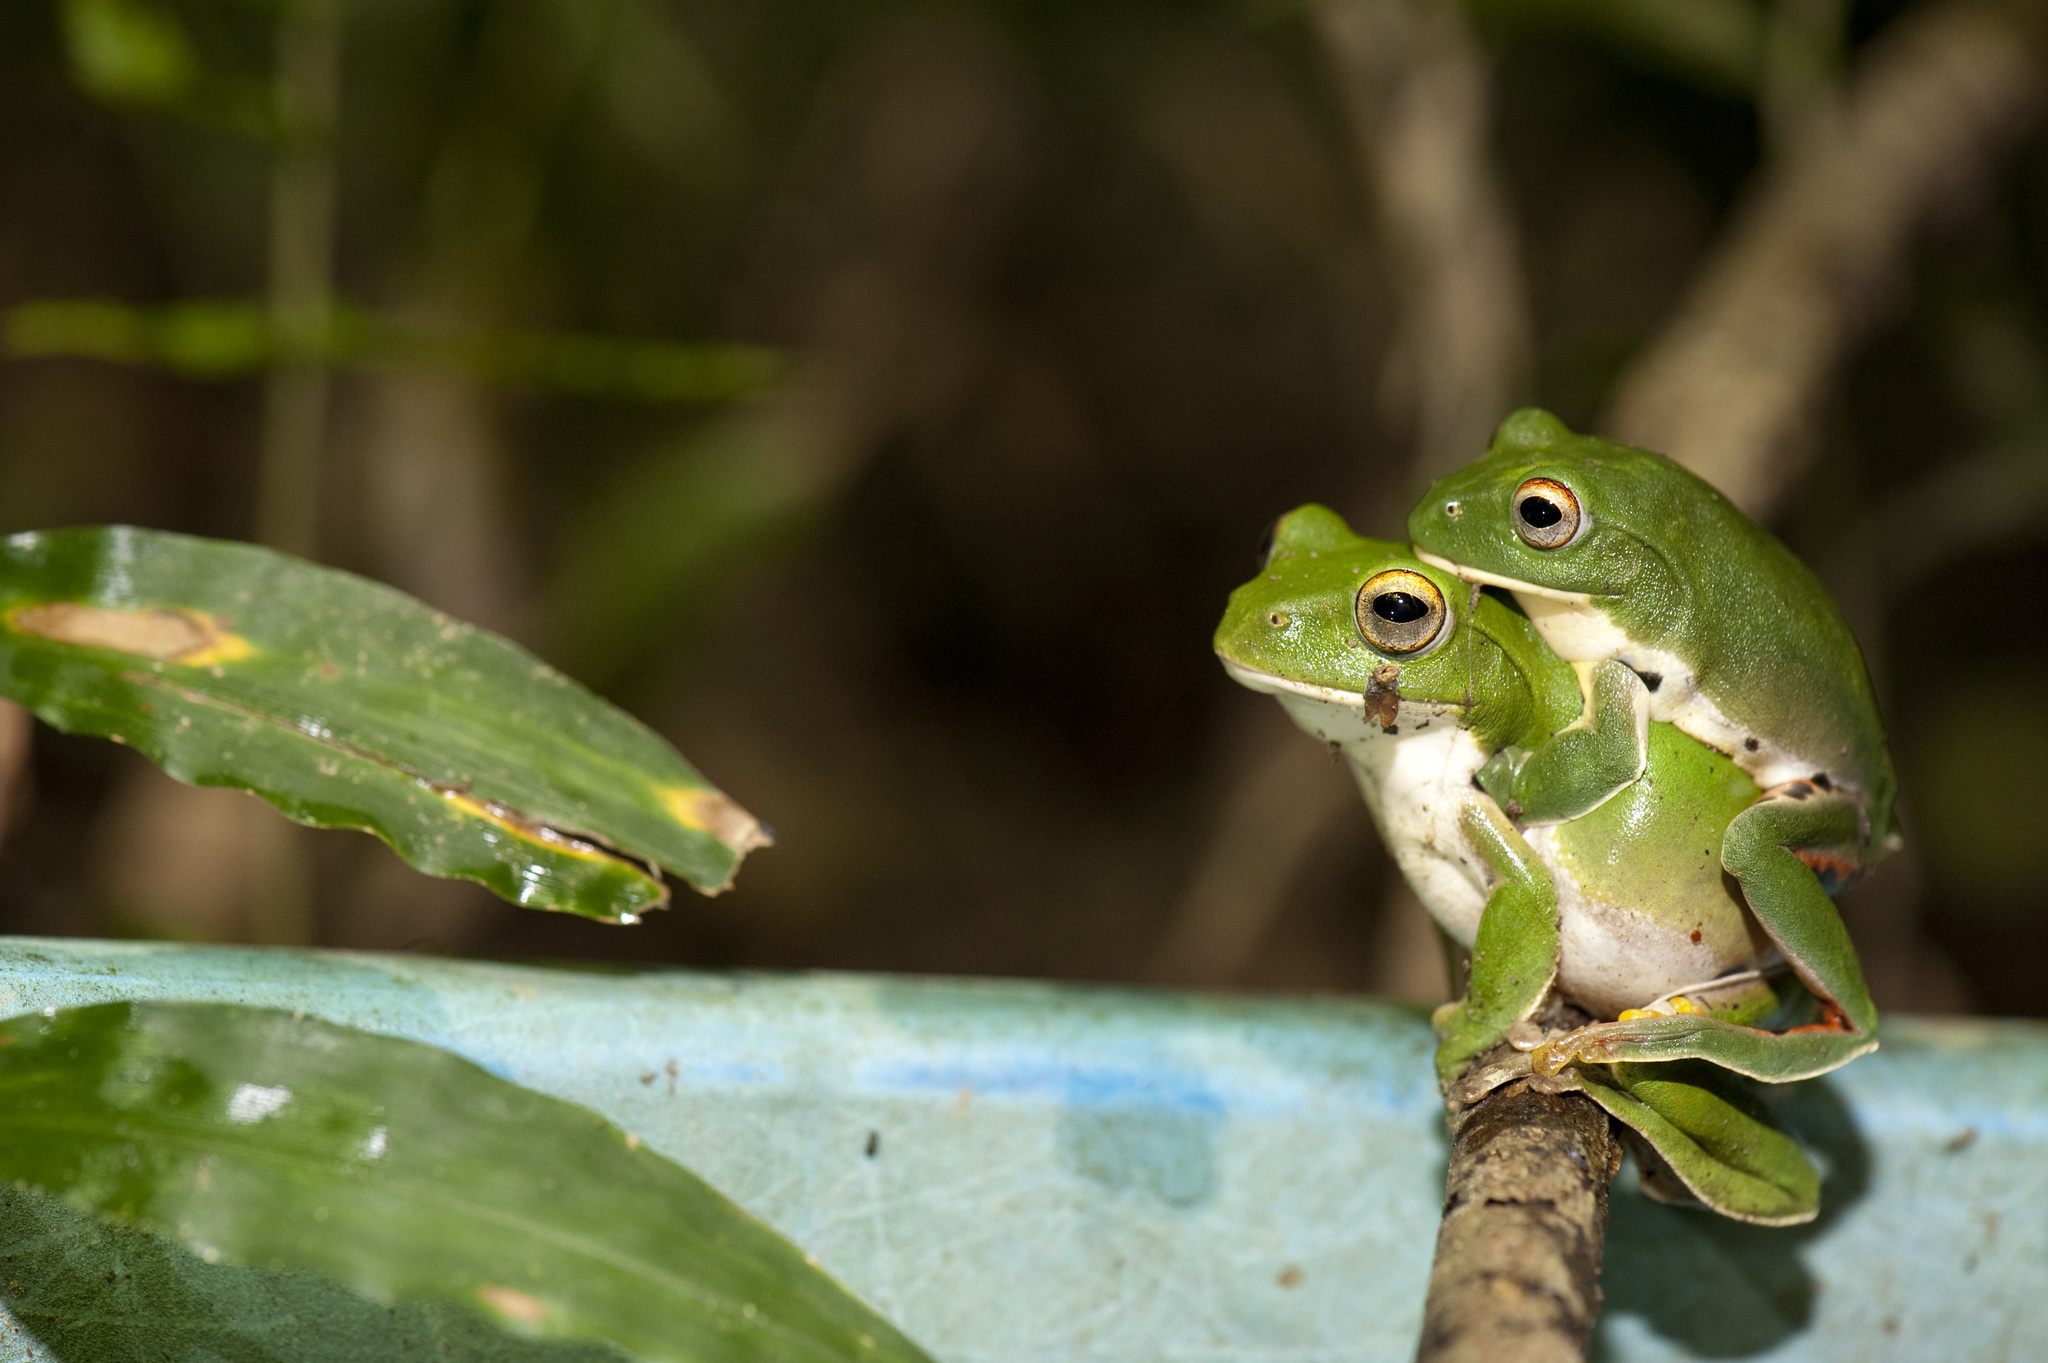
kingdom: Animalia
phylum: Chordata
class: Amphibia
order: Anura
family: Rhacophoridae
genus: Zhangixalus
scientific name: Zhangixalus moltrechti
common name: Moltrecht's treefrog
